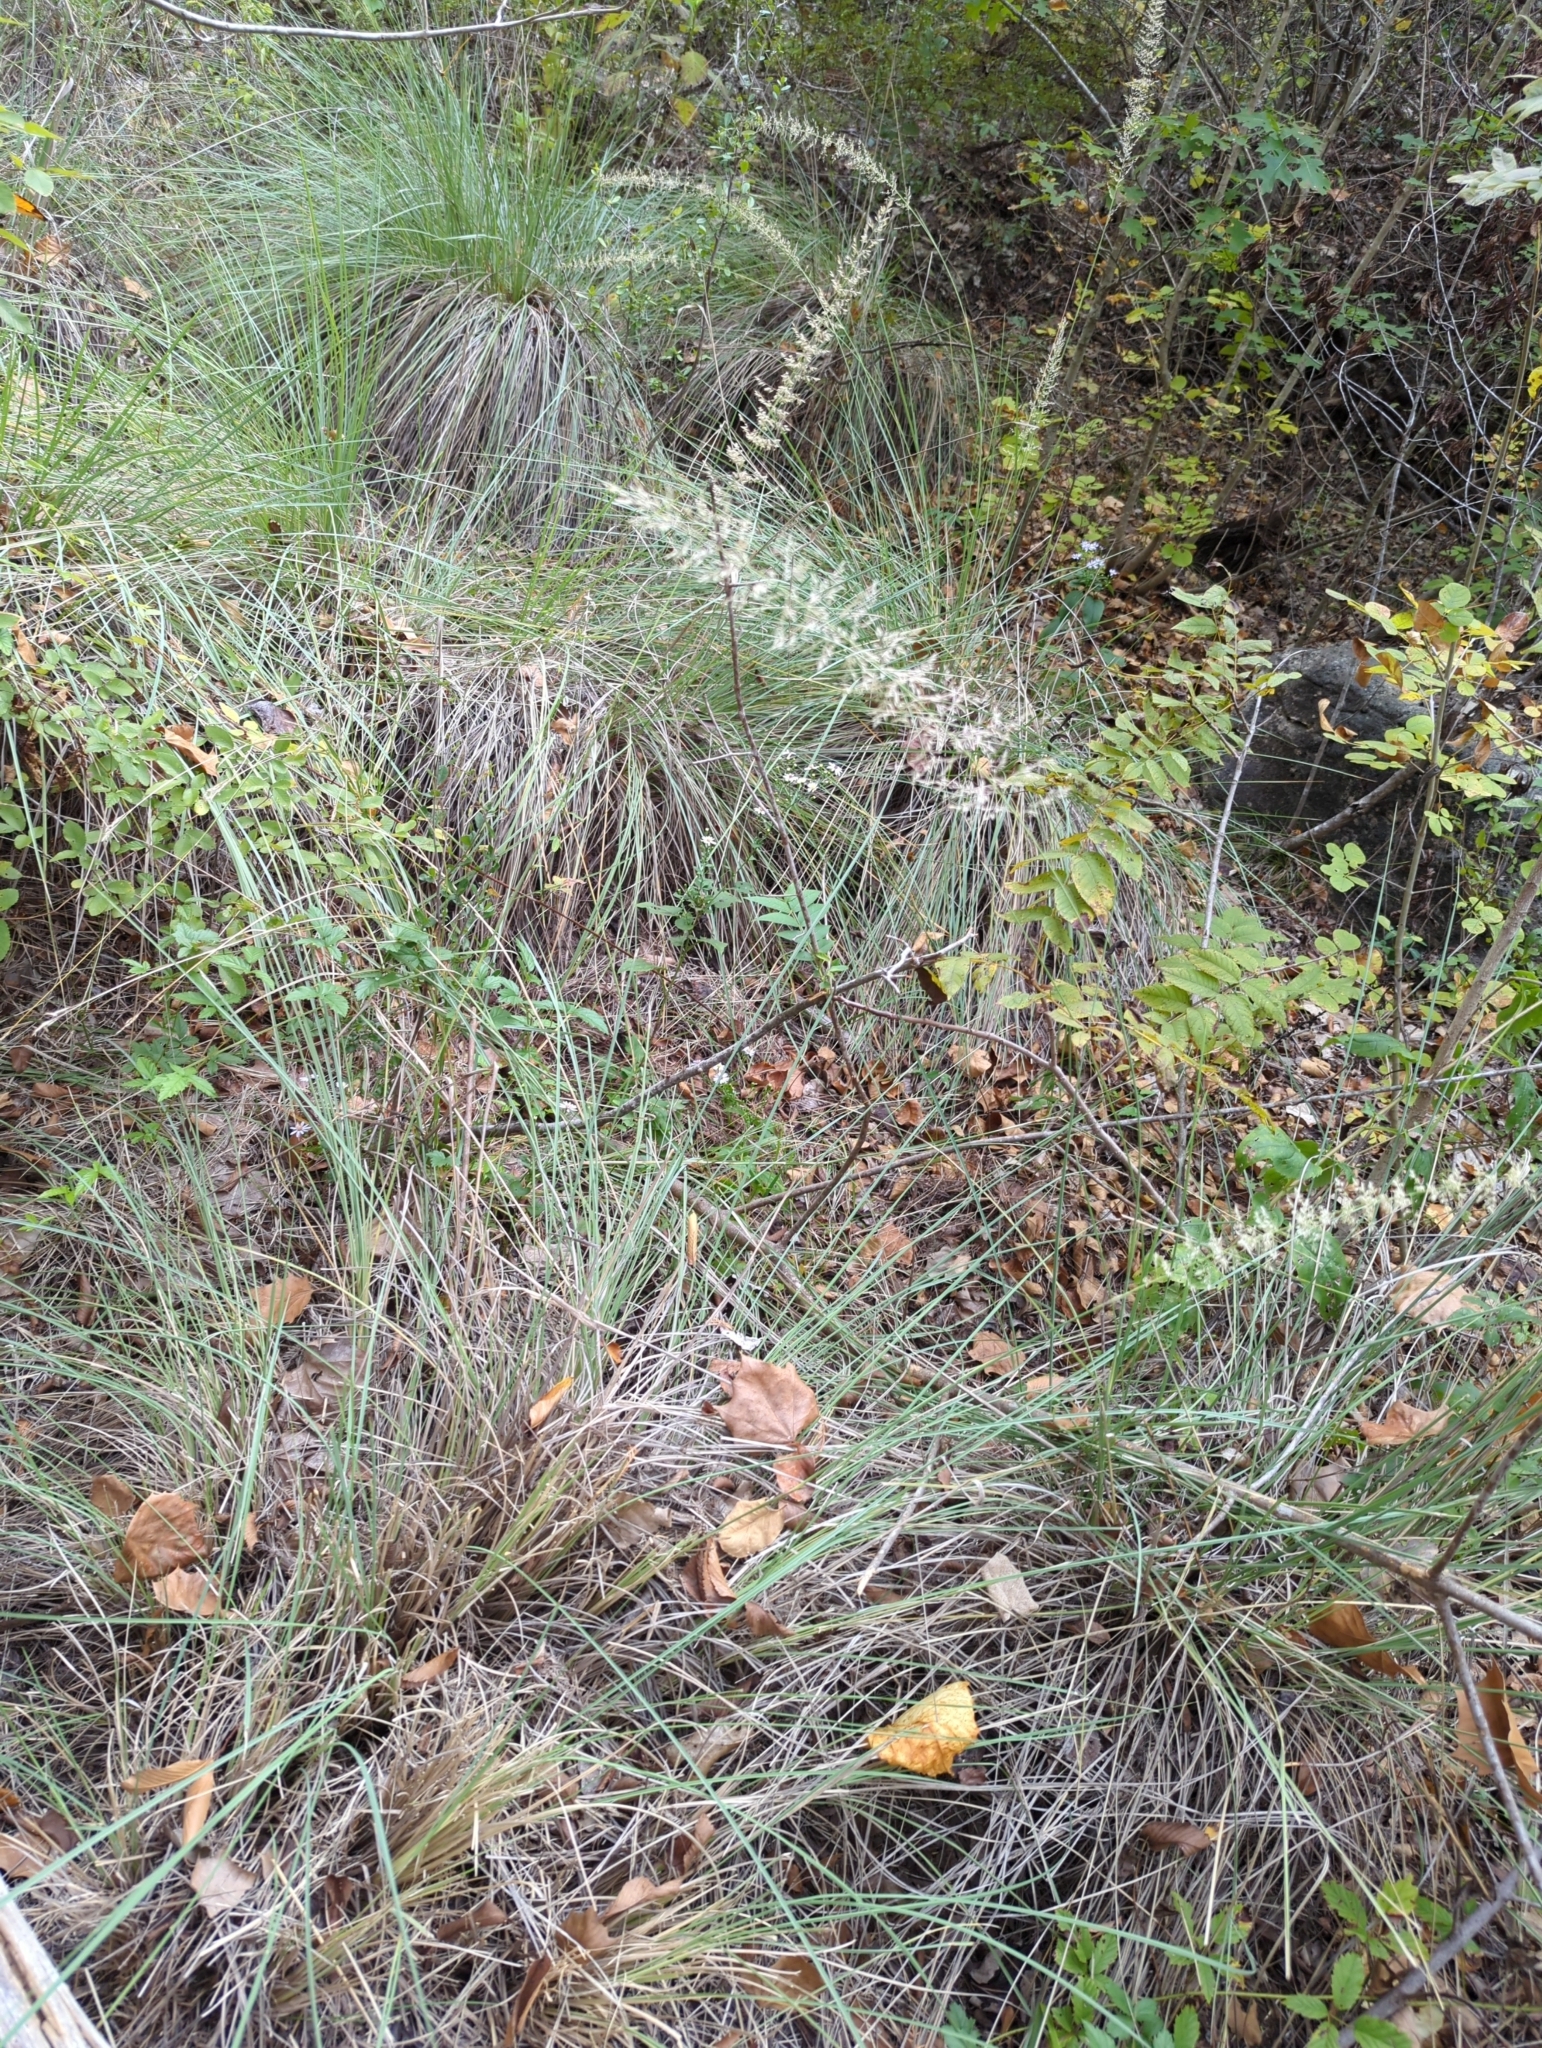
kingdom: Plantae
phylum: Tracheophyta
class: Liliopsida
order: Poales
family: Poaceae
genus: Muhlenbergia
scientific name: Muhlenbergia lindheimeri
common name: Lindheimer's muhly
